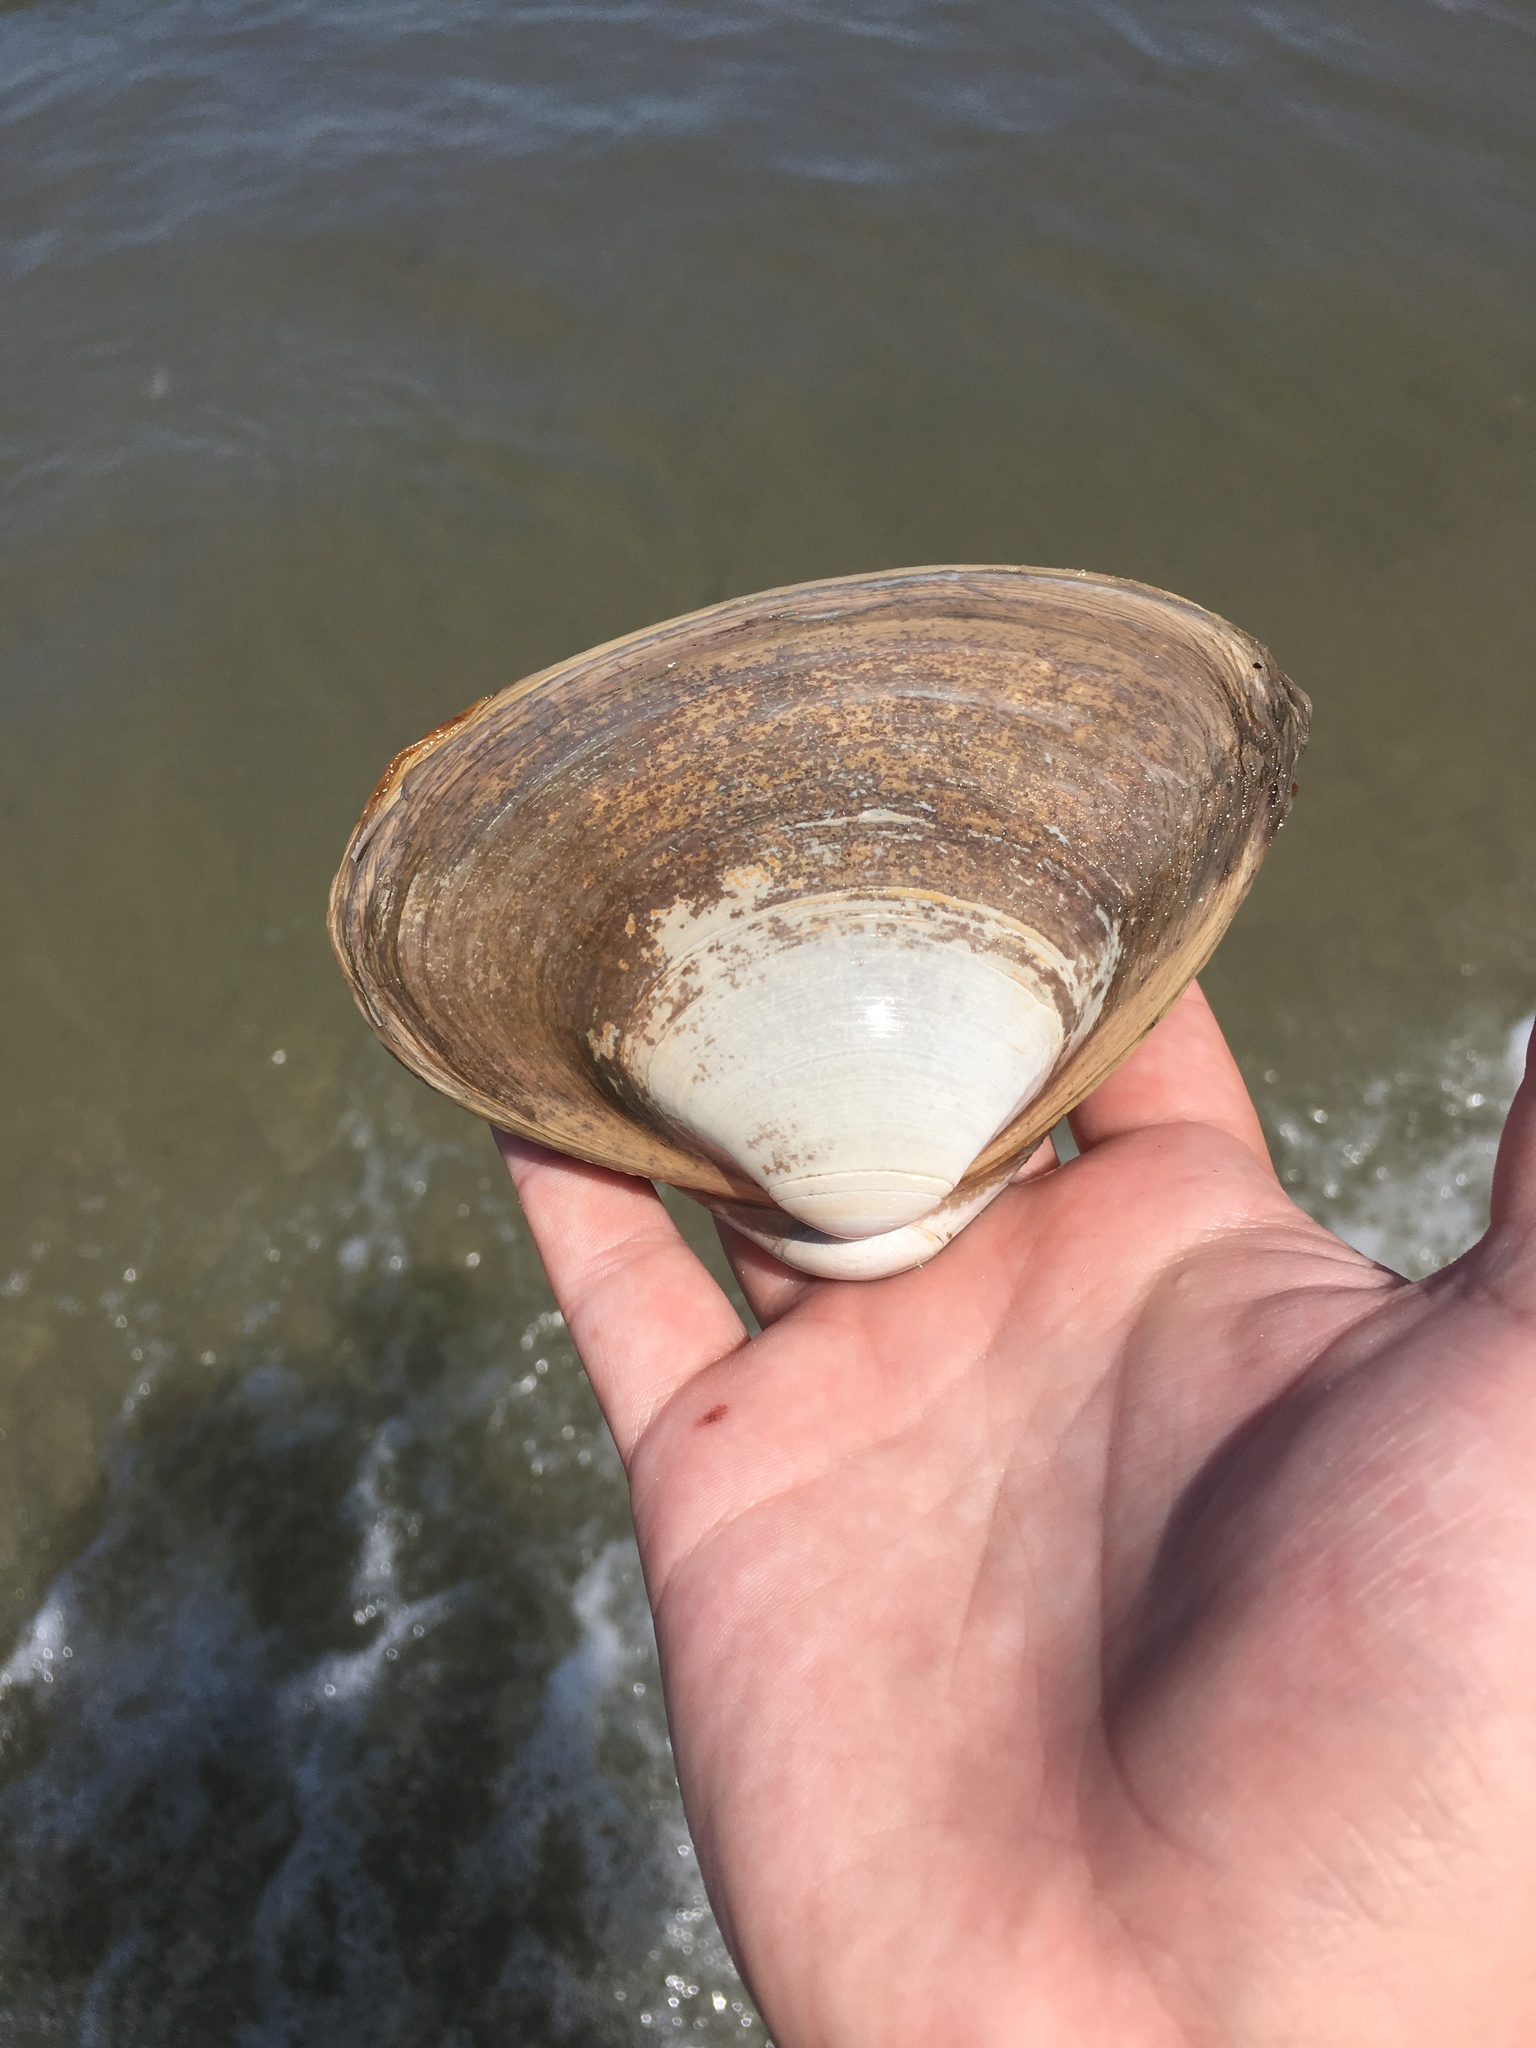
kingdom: Animalia
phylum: Mollusca
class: Bivalvia
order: Venerida
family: Mactridae
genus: Spisula
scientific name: Spisula solidissima
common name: Atlantic surf clam
